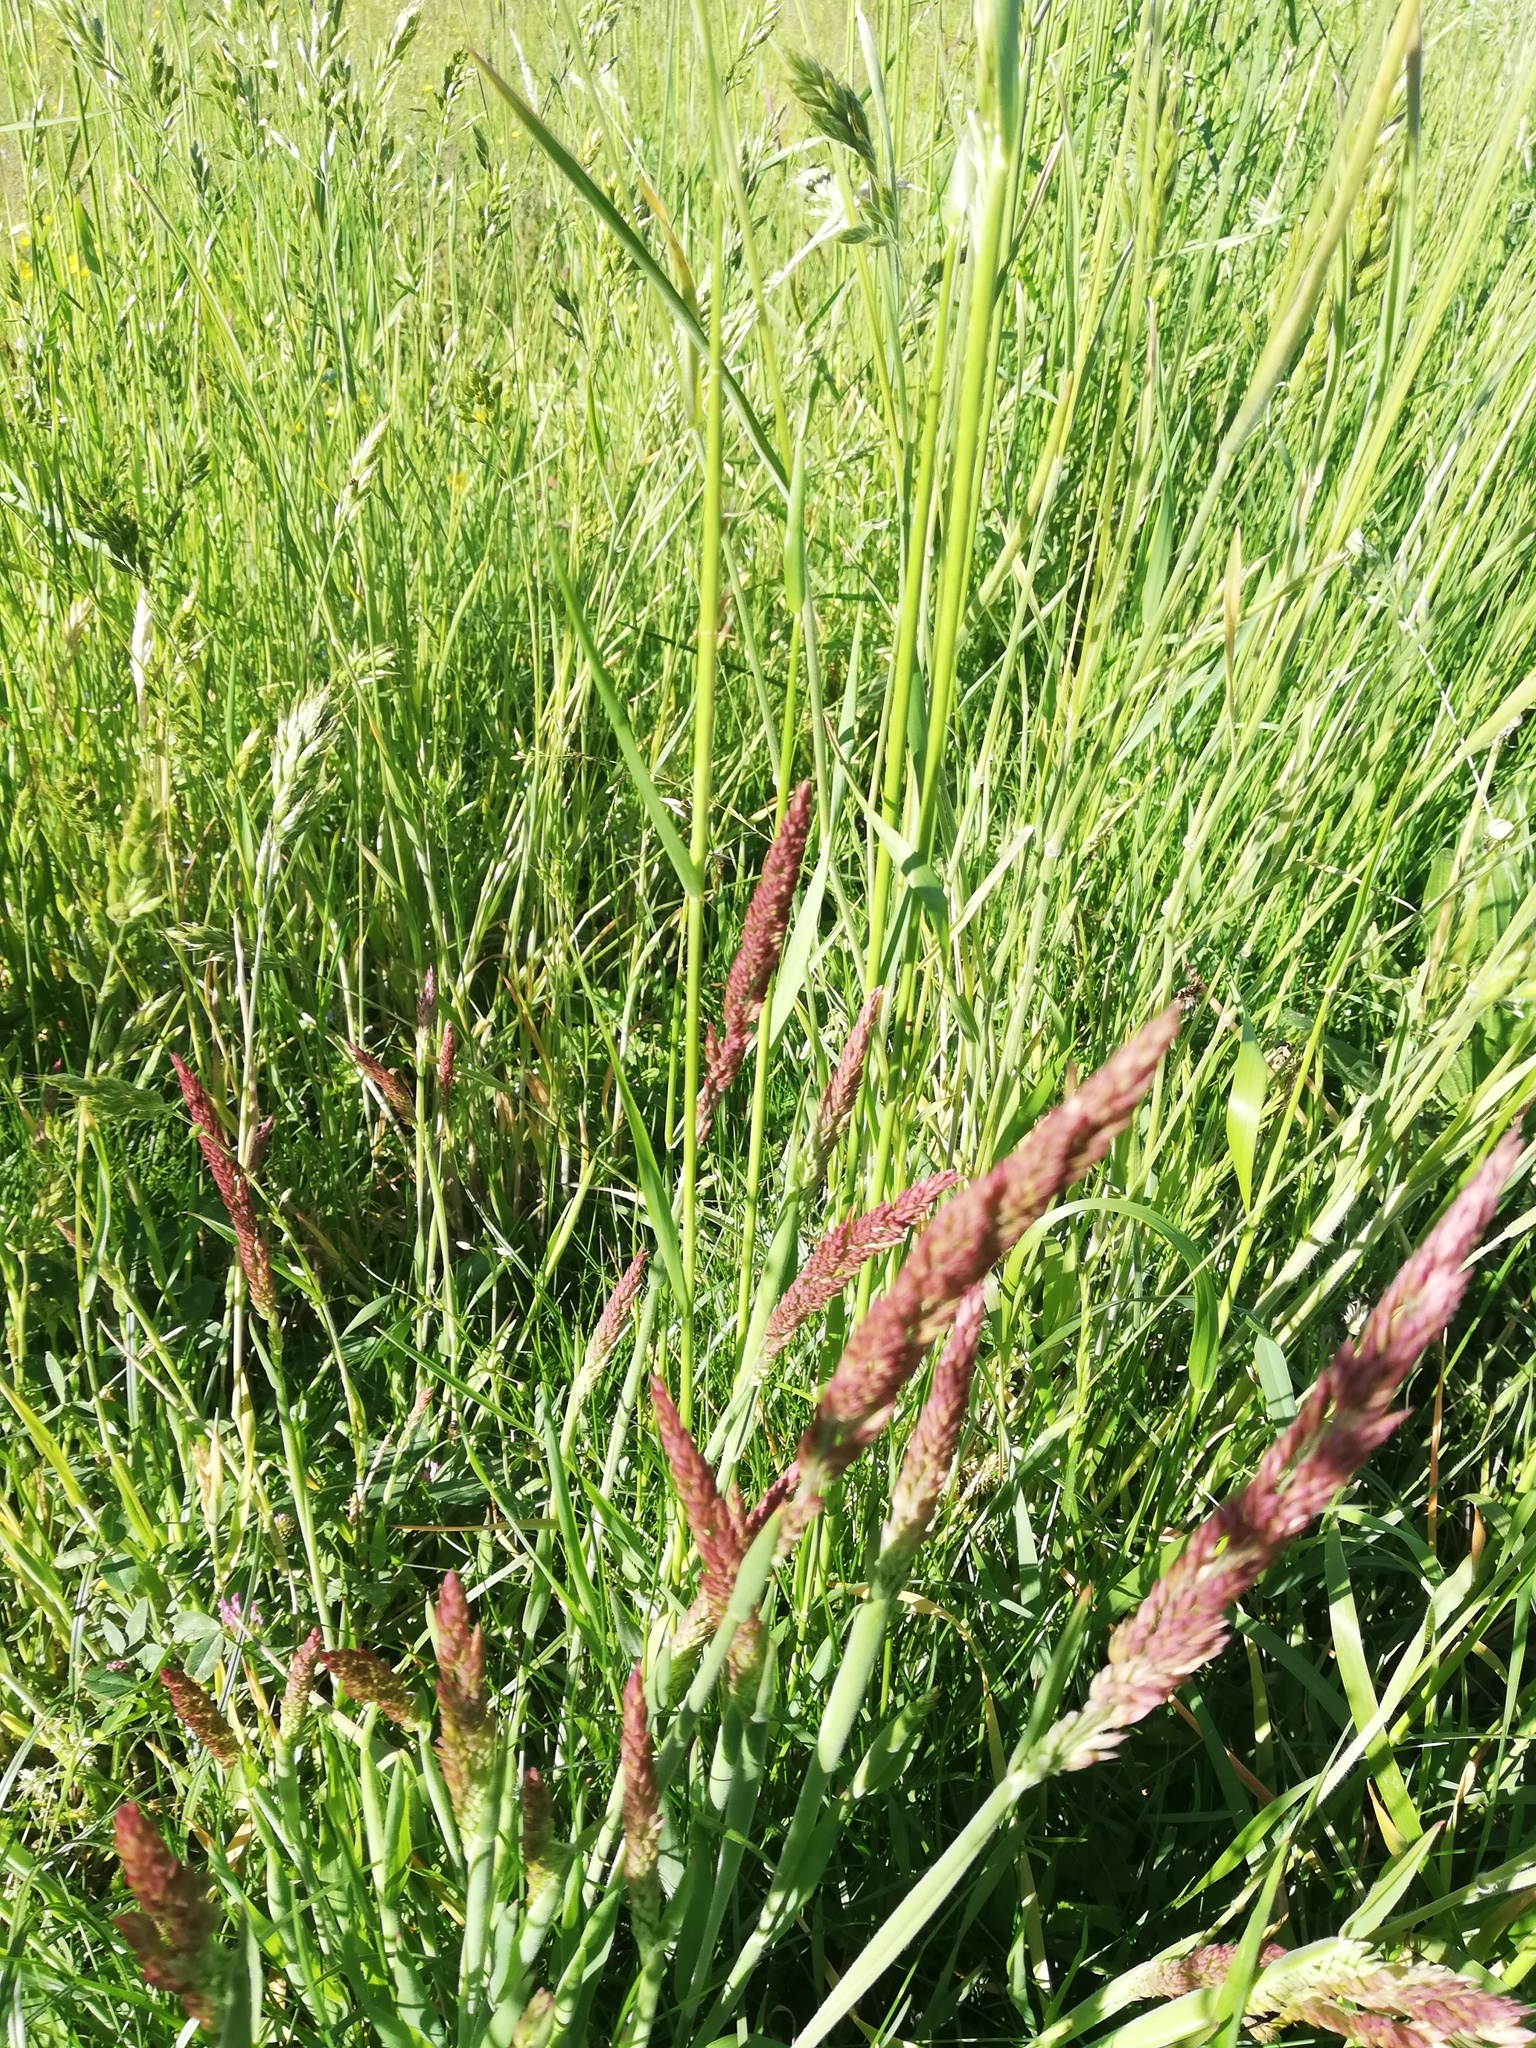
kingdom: Plantae
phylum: Tracheophyta
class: Liliopsida
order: Poales
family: Poaceae
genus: Holcus
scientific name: Holcus lanatus
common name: Yorkshire-fog
